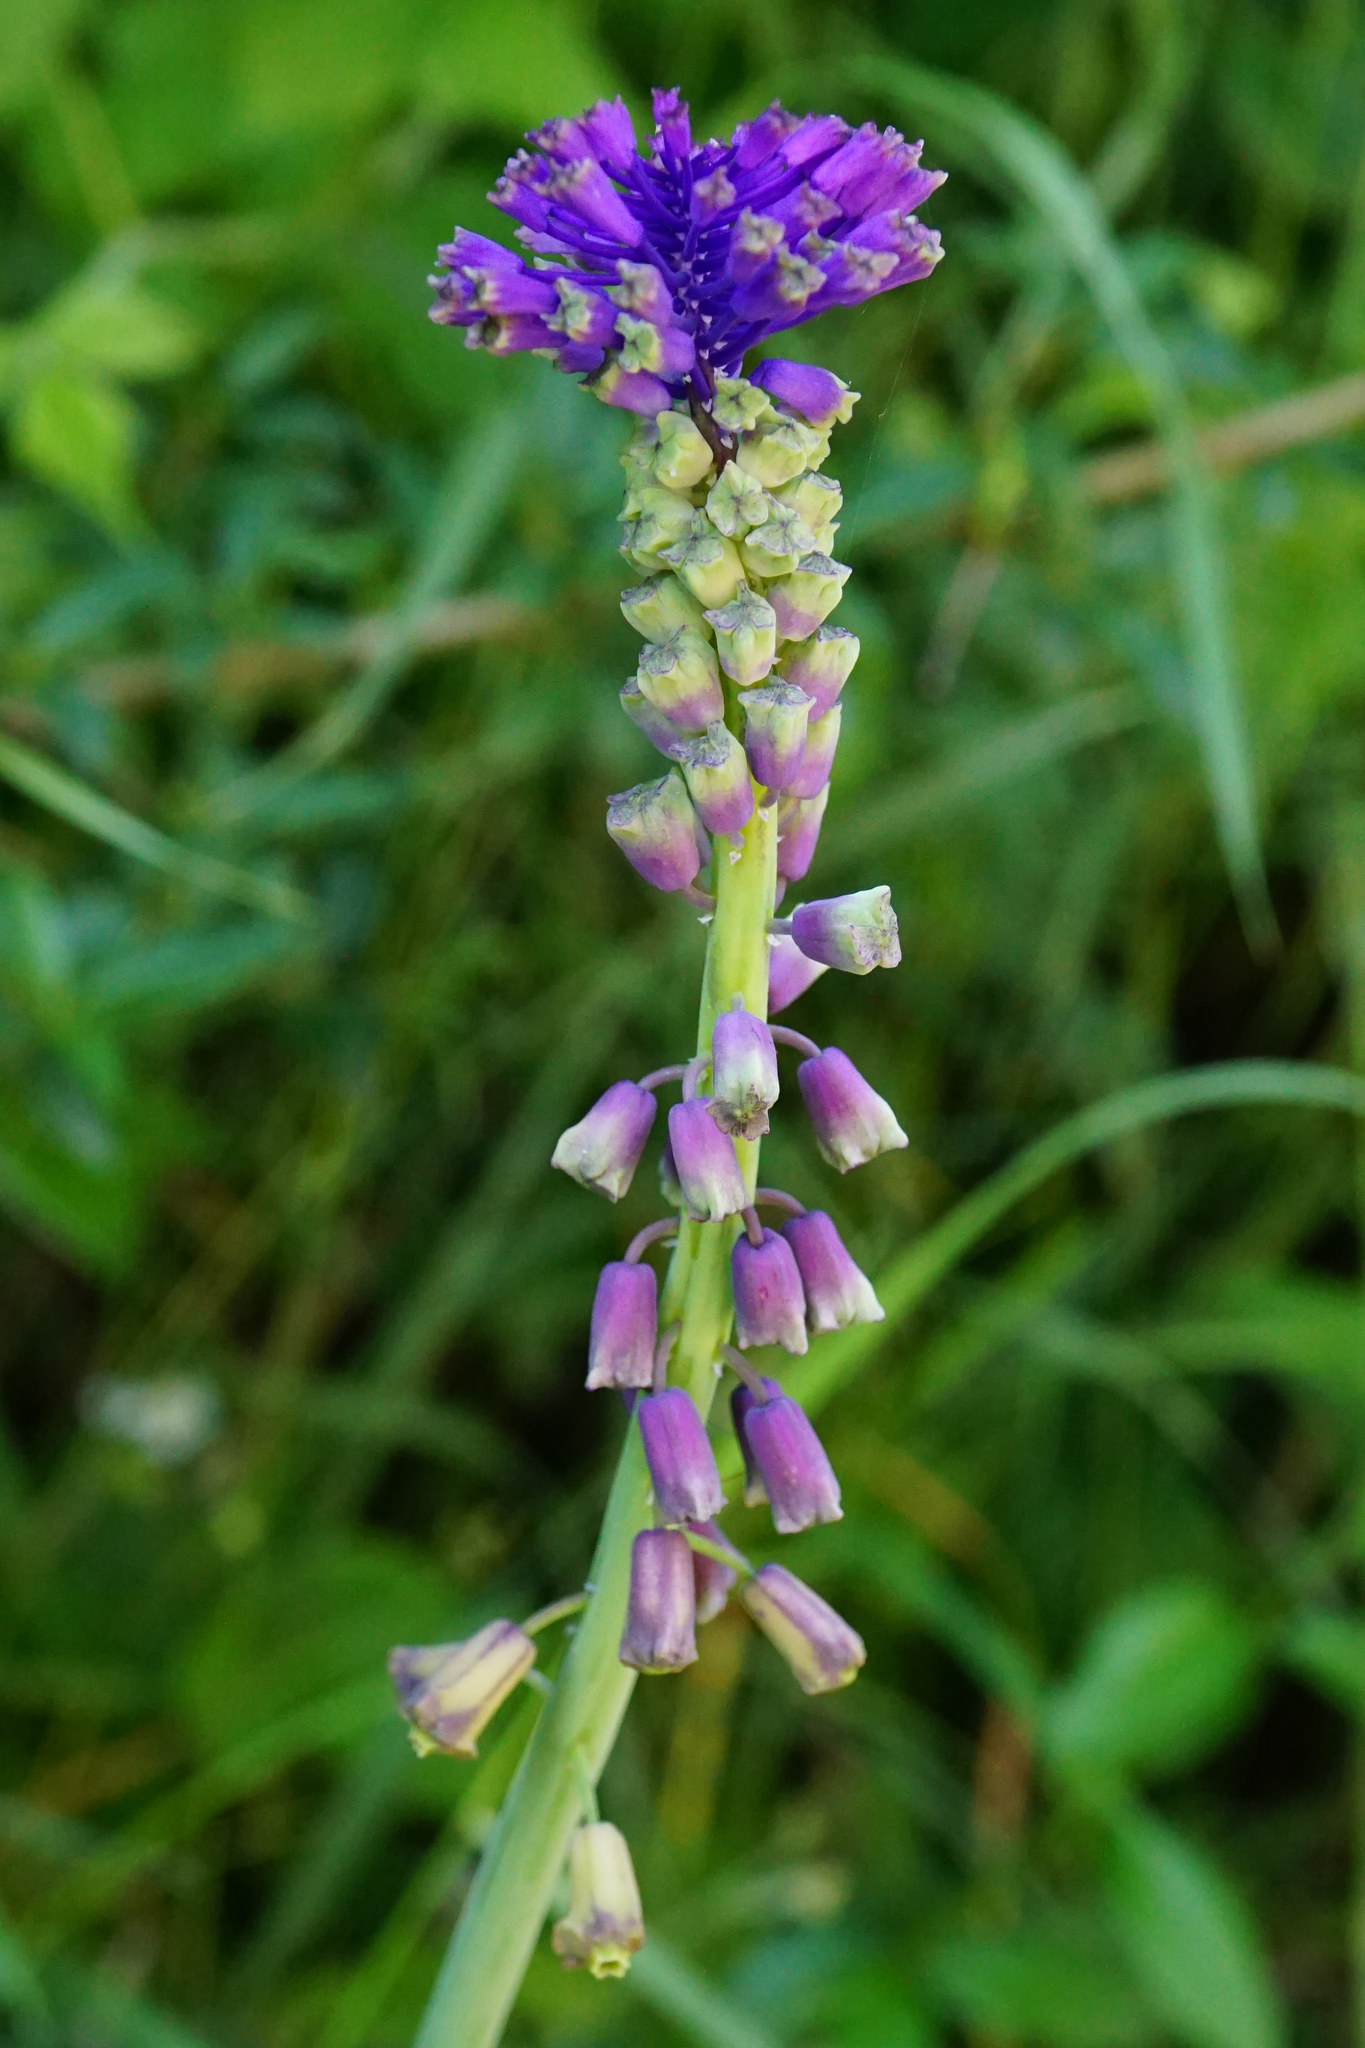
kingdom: Plantae
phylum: Tracheophyta
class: Liliopsida
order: Asparagales
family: Asparagaceae
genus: Muscari
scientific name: Muscari comosum
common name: Tassel hyacinth
